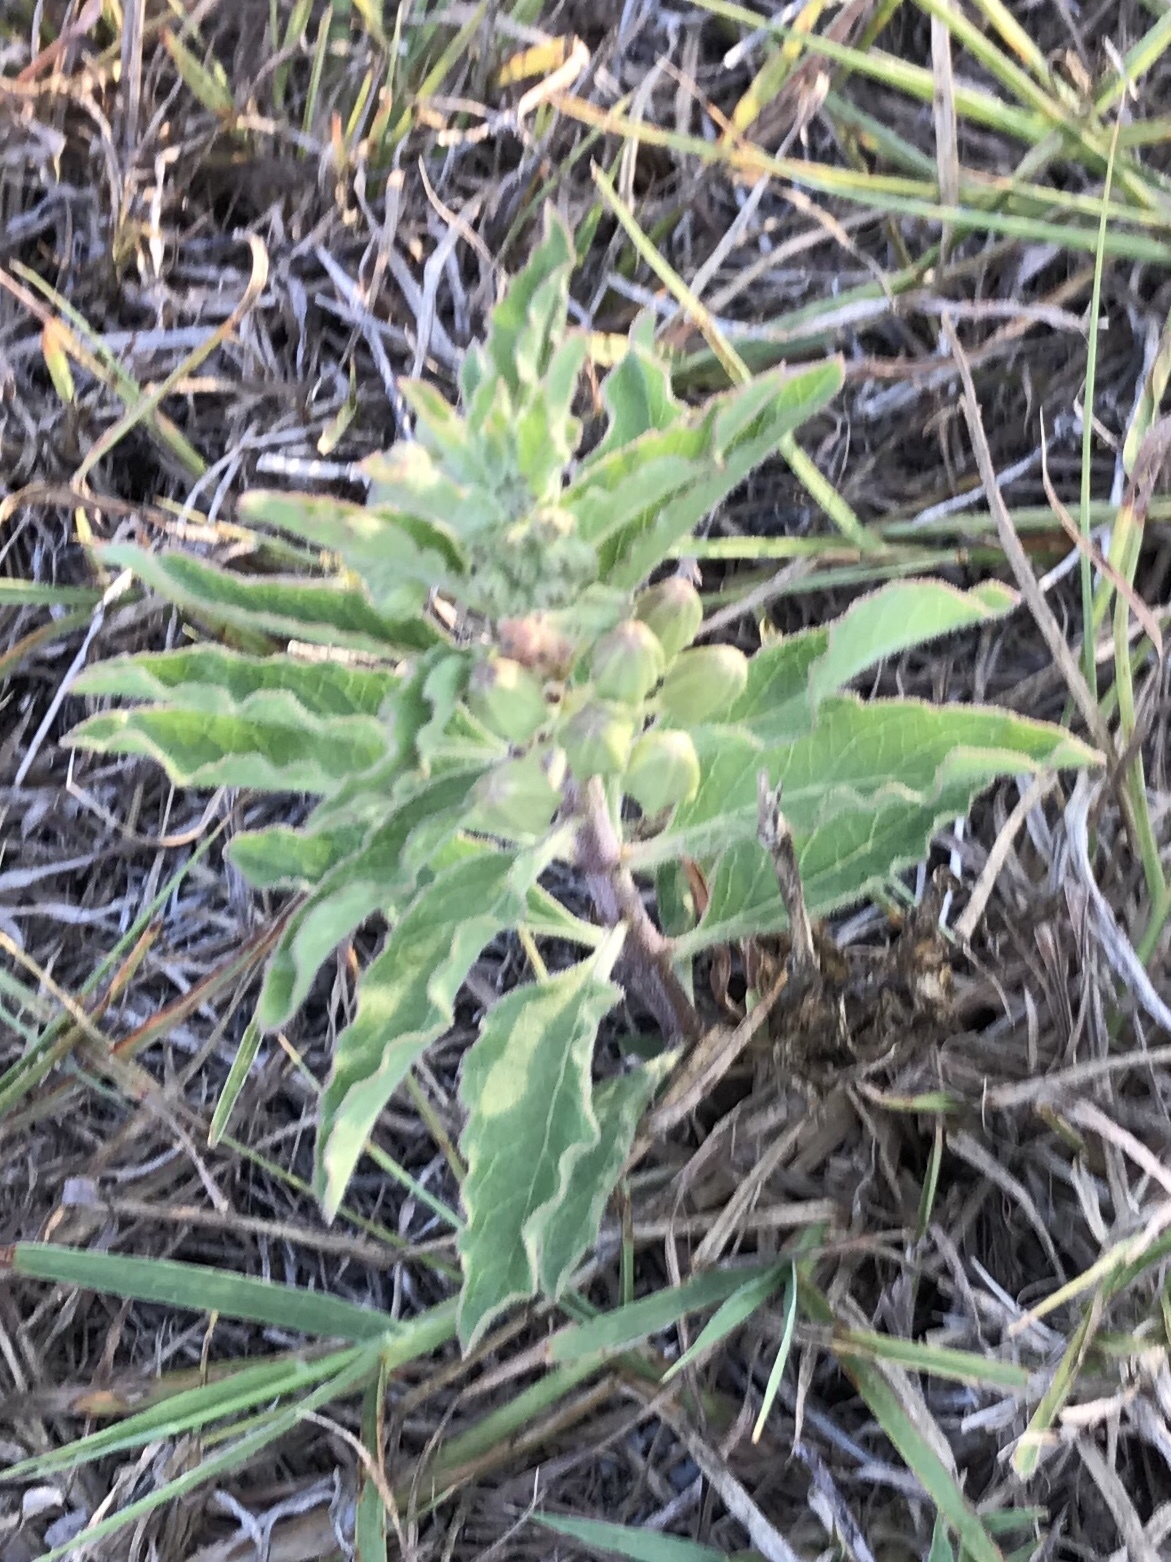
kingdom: Plantae
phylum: Tracheophyta
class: Magnoliopsida
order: Gentianales
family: Apocynaceae
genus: Asclepias
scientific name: Asclepias oenotheroides
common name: Zizotes milkweed
